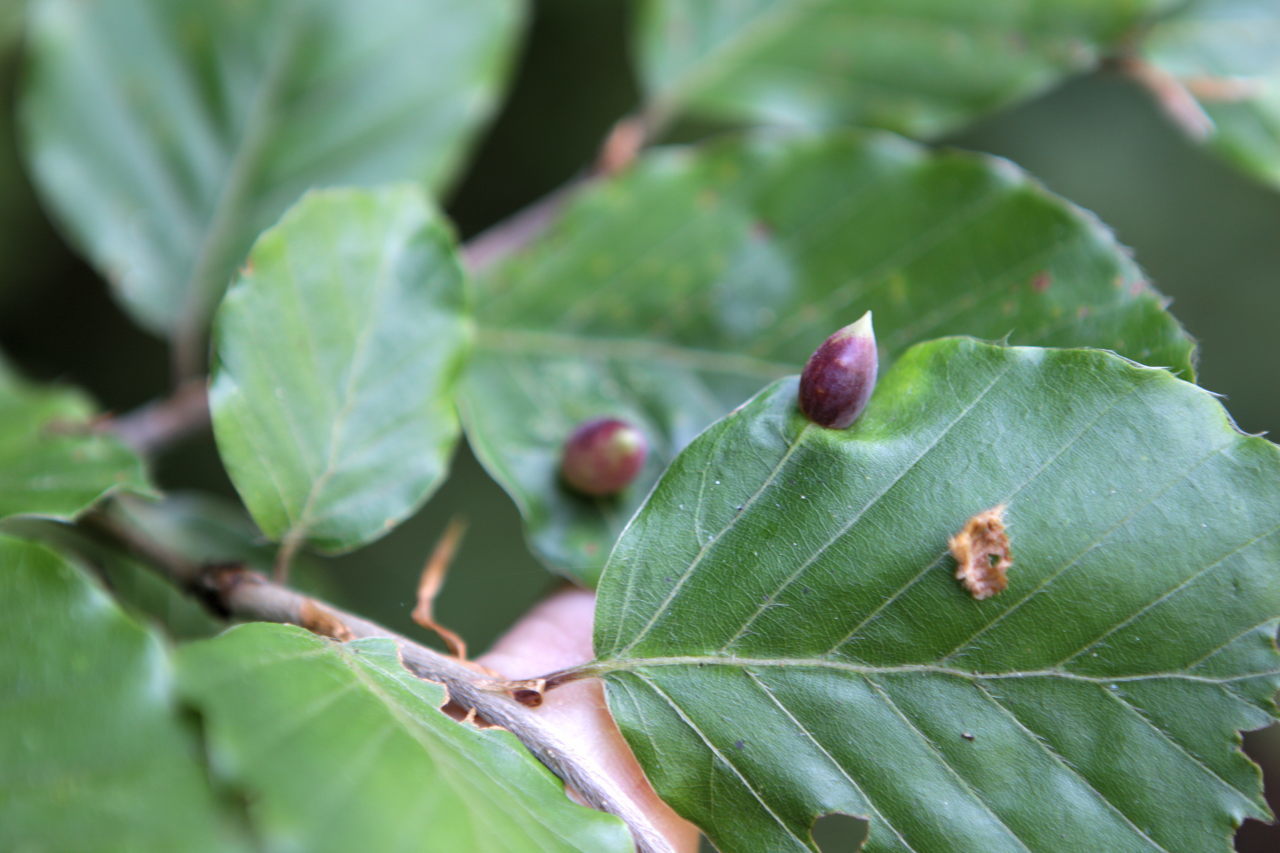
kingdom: Animalia
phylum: Arthropoda
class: Insecta
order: Diptera
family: Cecidomyiidae
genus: Mikiola
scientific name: Mikiola fagi
